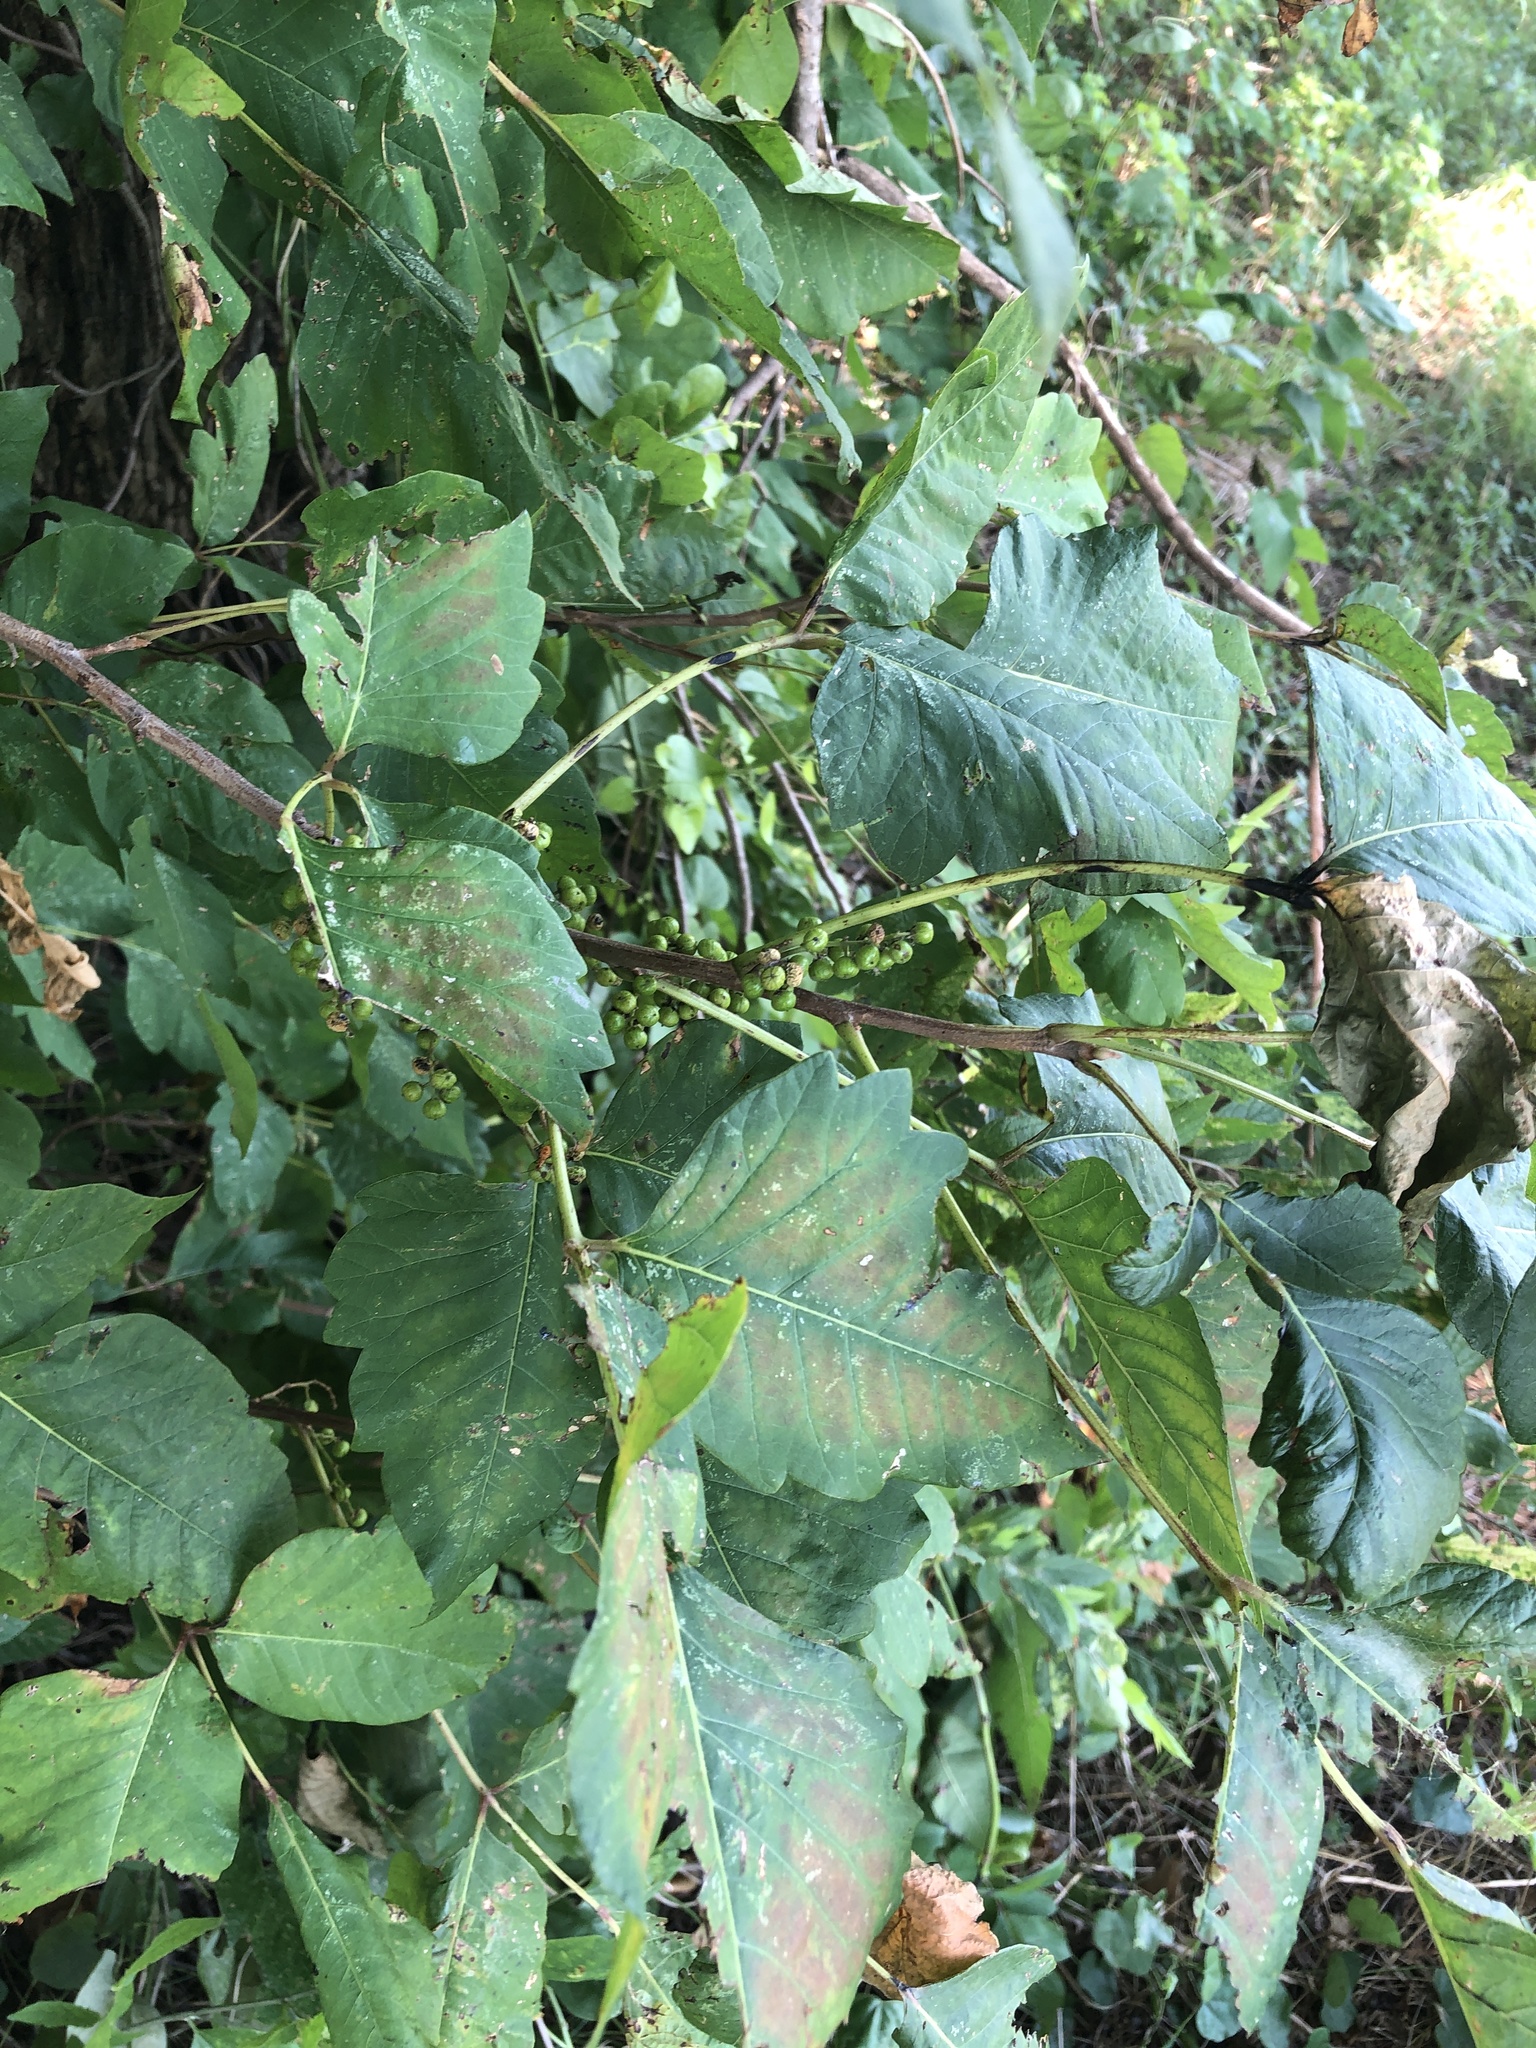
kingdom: Plantae
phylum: Tracheophyta
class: Magnoliopsida
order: Sapindales
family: Anacardiaceae
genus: Toxicodendron
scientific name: Toxicodendron radicans
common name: Poison ivy
